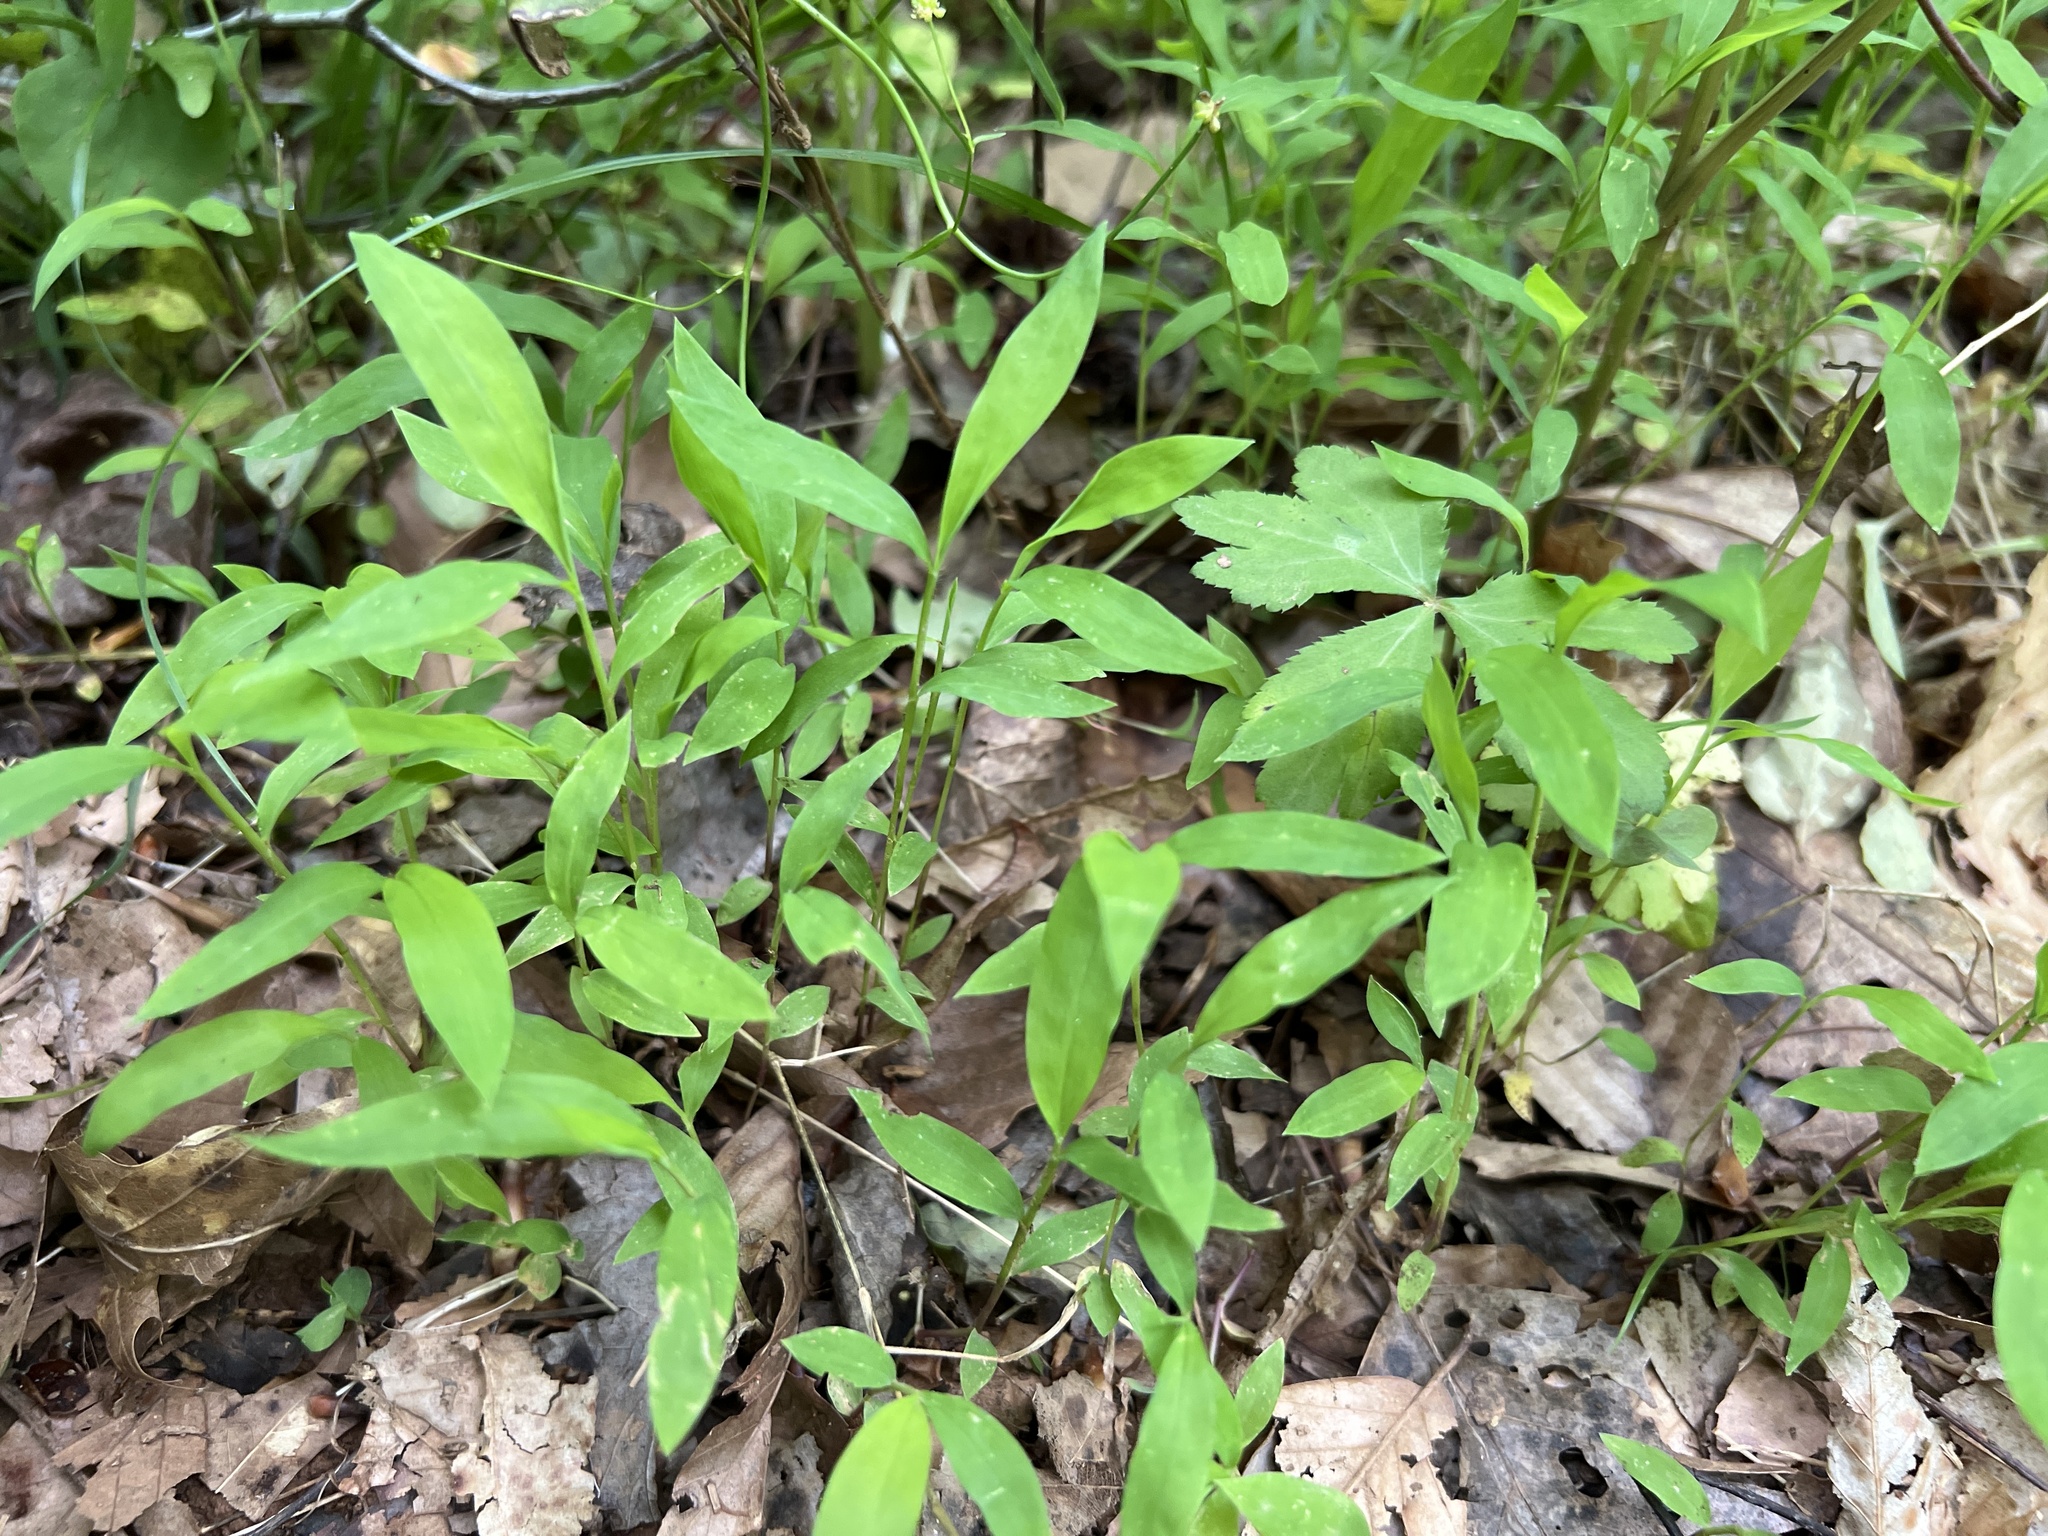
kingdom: Plantae
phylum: Tracheophyta
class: Liliopsida
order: Poales
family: Poaceae
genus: Microstegium
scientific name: Microstegium vimineum
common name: Japanese stiltgrass
